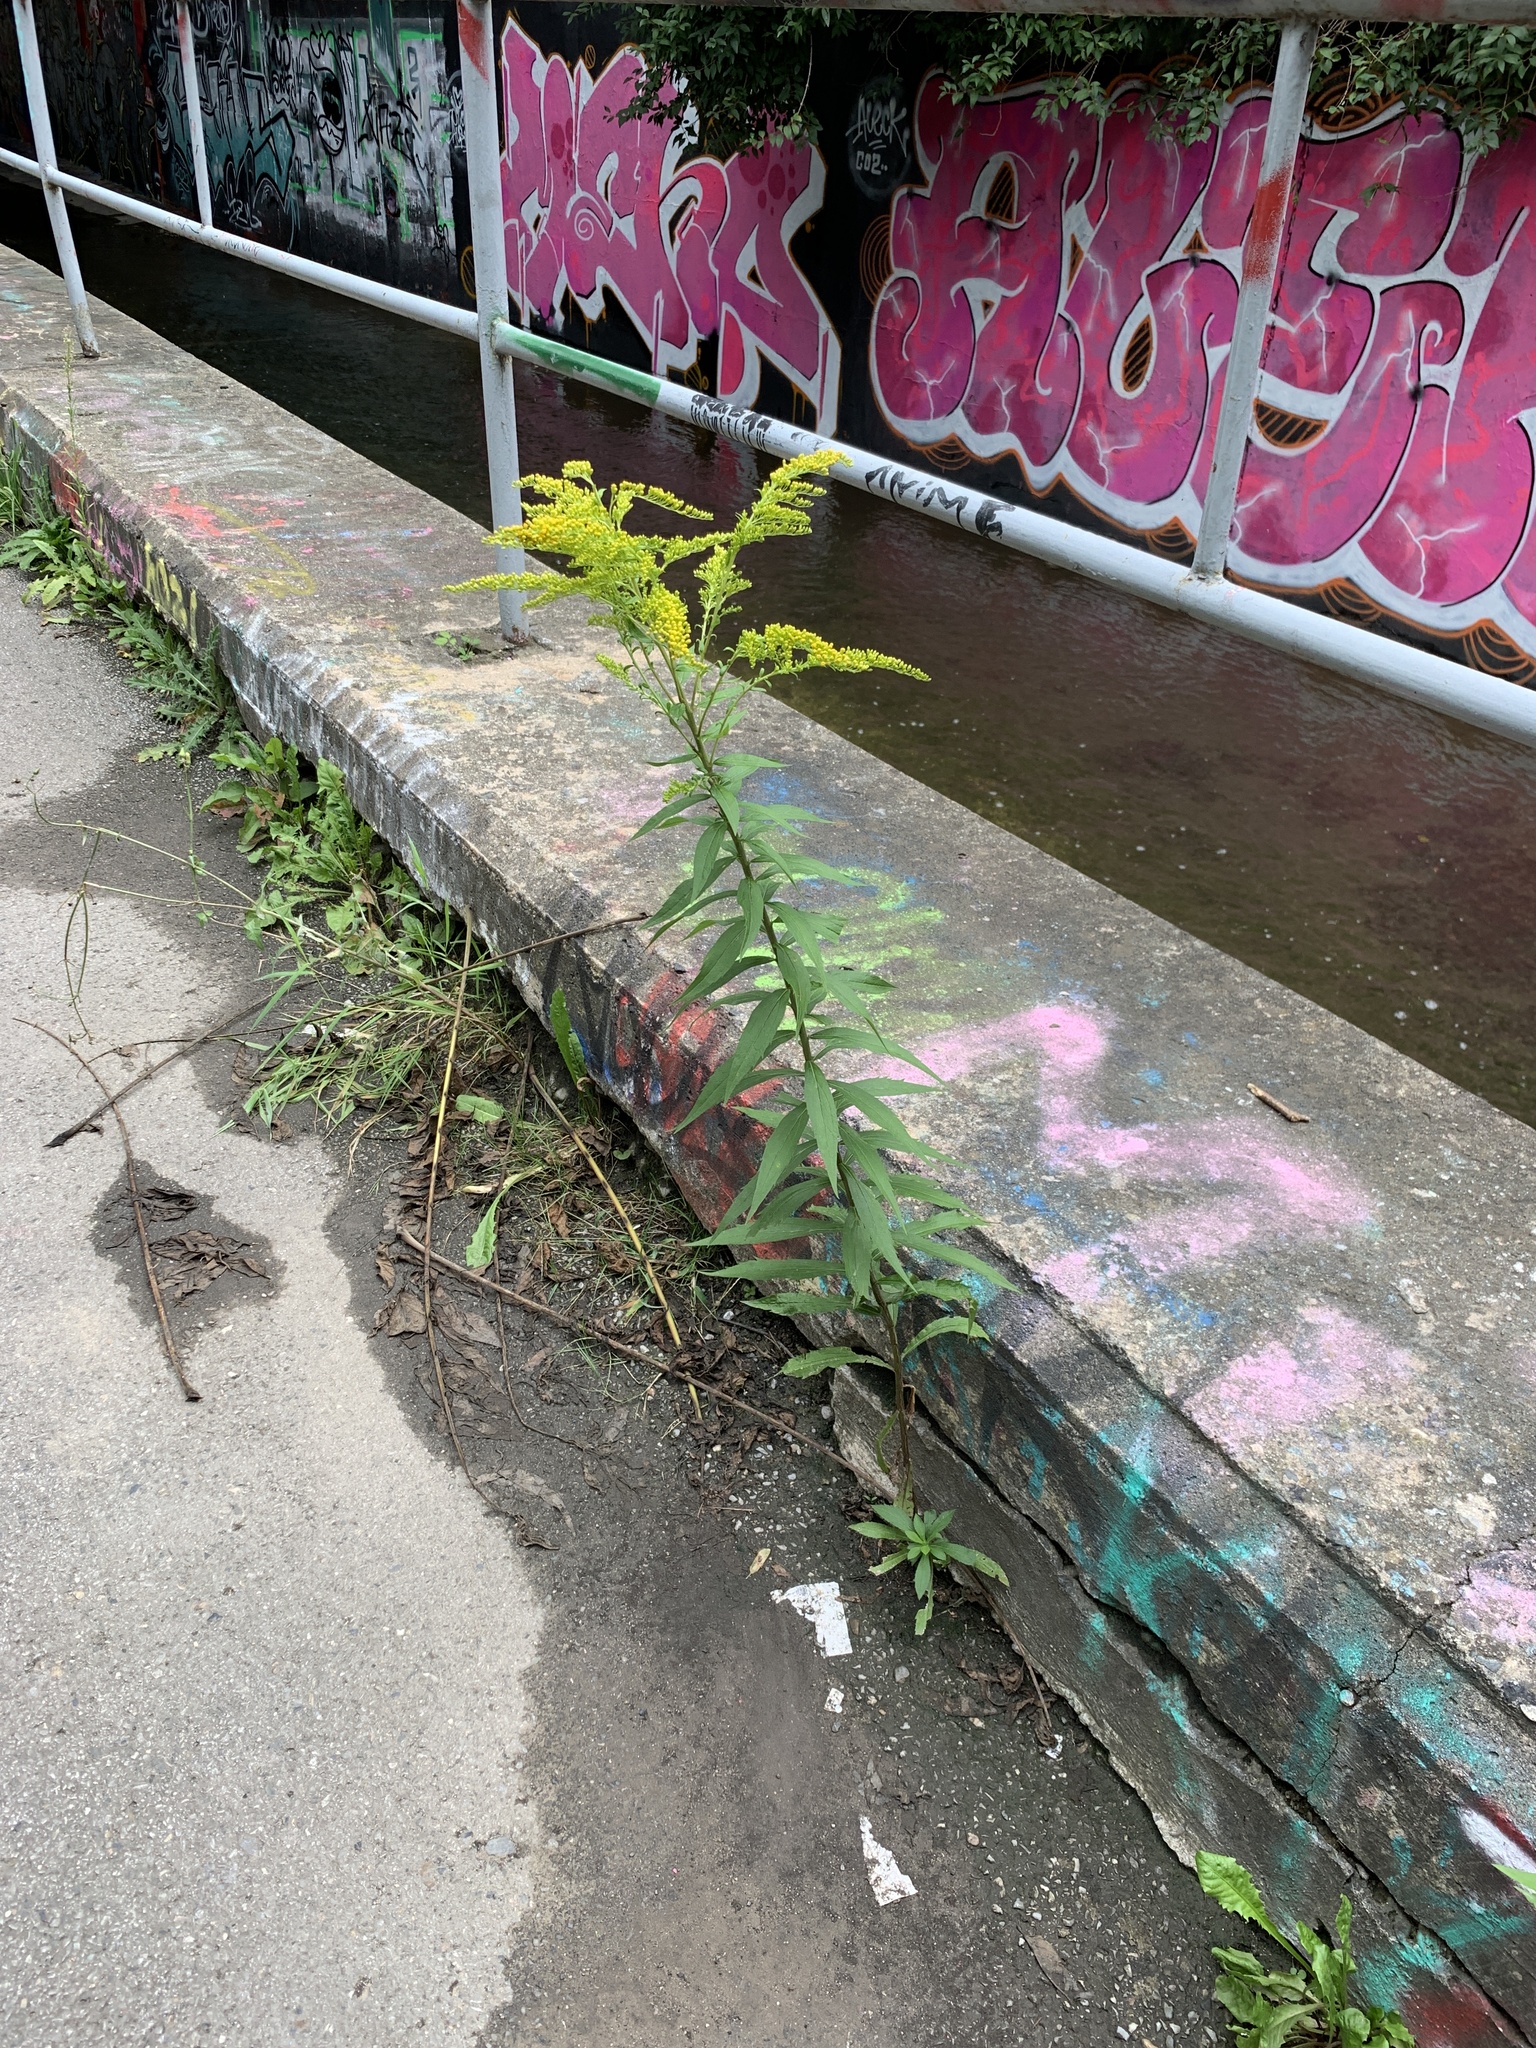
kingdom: Plantae
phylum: Tracheophyta
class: Magnoliopsida
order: Asterales
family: Asteraceae
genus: Solidago
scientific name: Solidago canadensis
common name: Canada goldenrod
